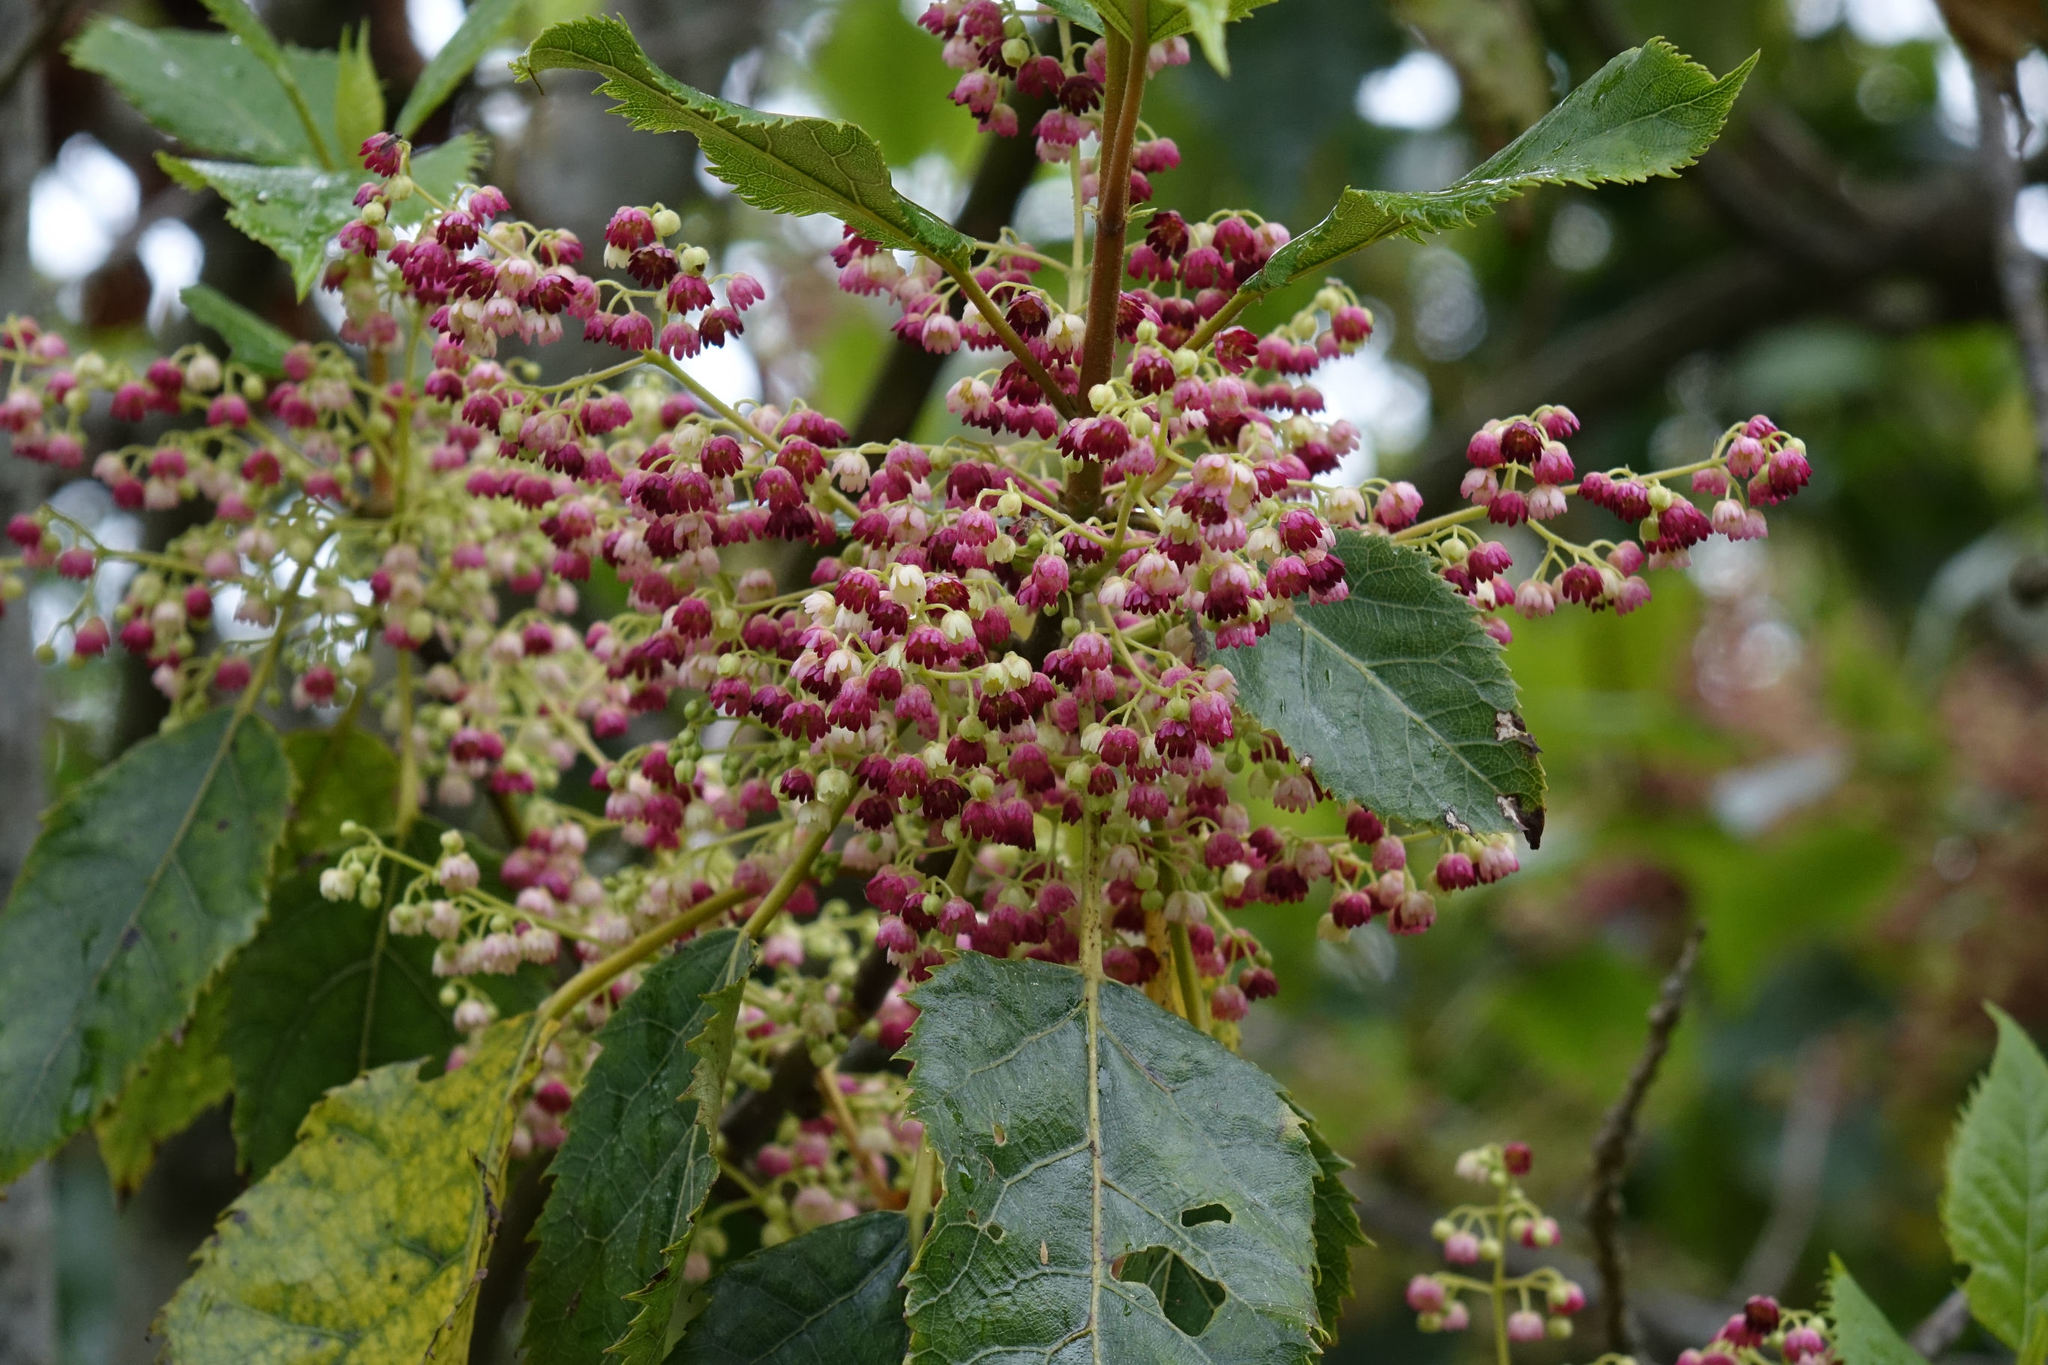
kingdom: Plantae
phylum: Tracheophyta
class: Magnoliopsida
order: Oxalidales
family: Elaeocarpaceae
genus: Aristotelia
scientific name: Aristotelia serrata
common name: New zealand wineberry
